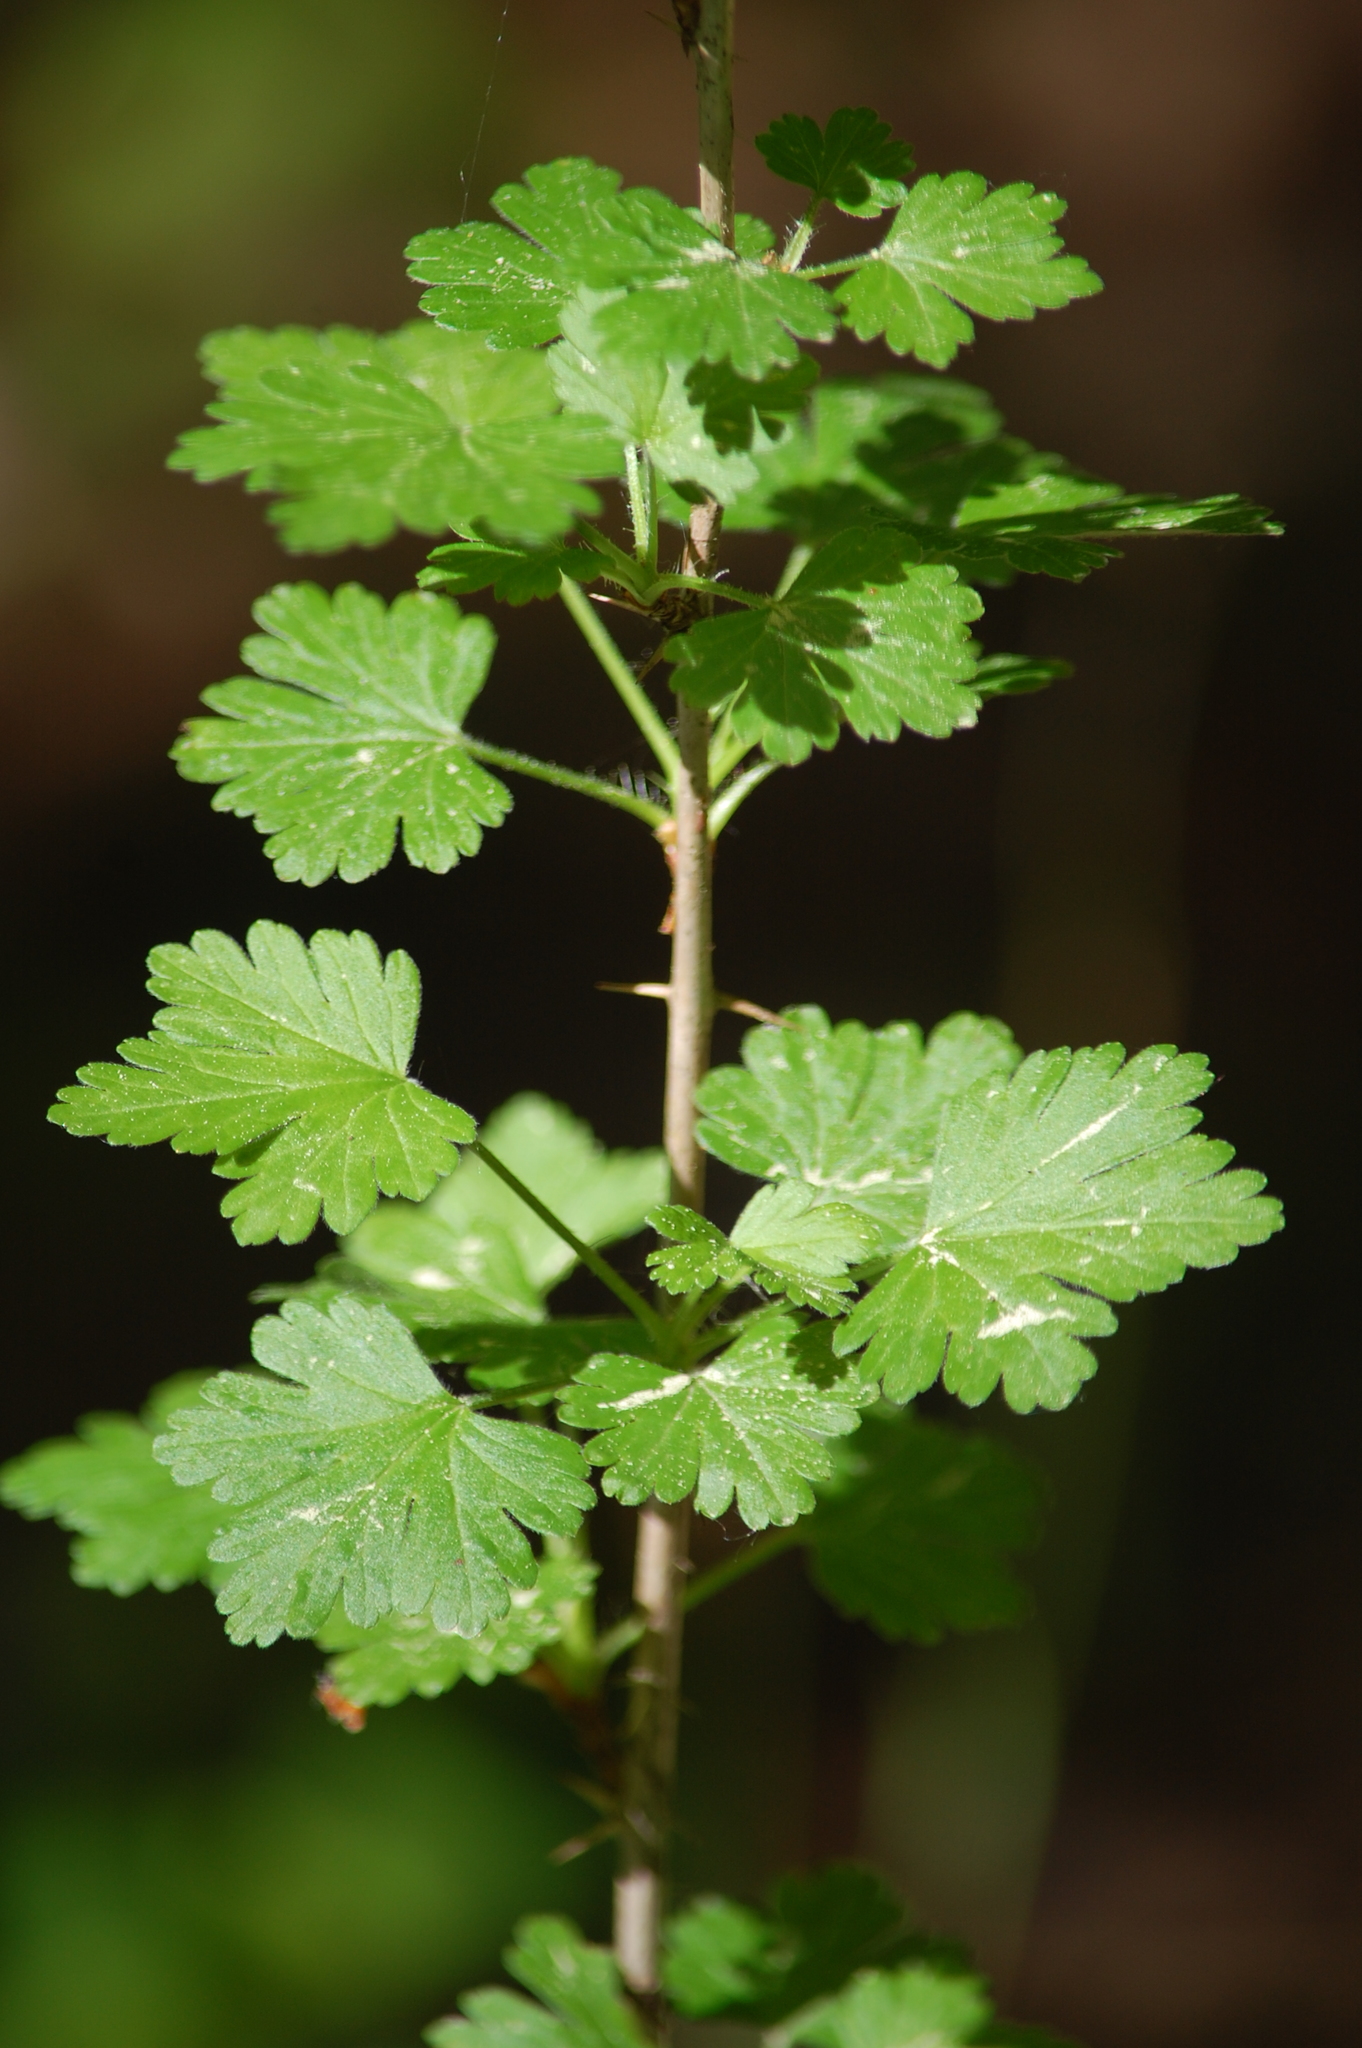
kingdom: Plantae
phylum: Tracheophyta
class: Magnoliopsida
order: Saxifragales
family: Grossulariaceae
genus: Ribes
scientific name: Ribes uva-crispa
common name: Gooseberry
